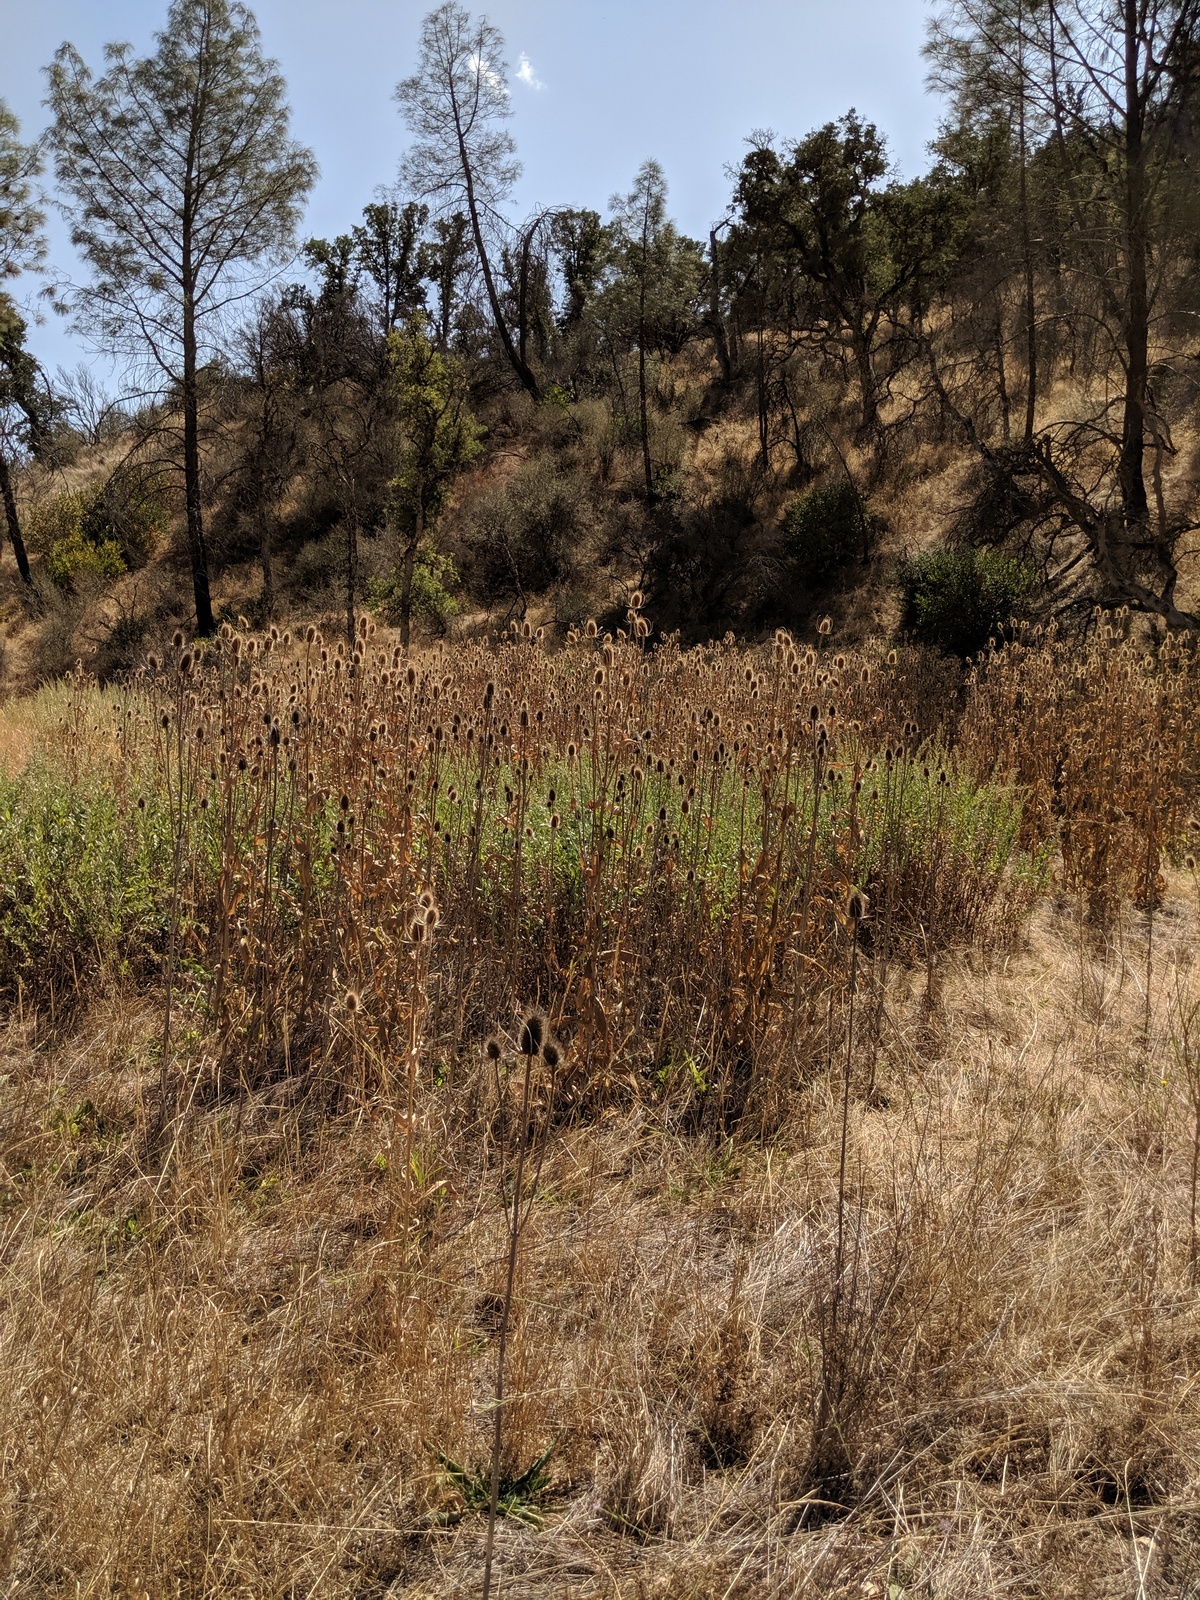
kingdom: Plantae
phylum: Tracheophyta
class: Magnoliopsida
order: Dipsacales
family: Caprifoliaceae
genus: Dipsacus
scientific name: Dipsacus fullonum
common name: Teasel
